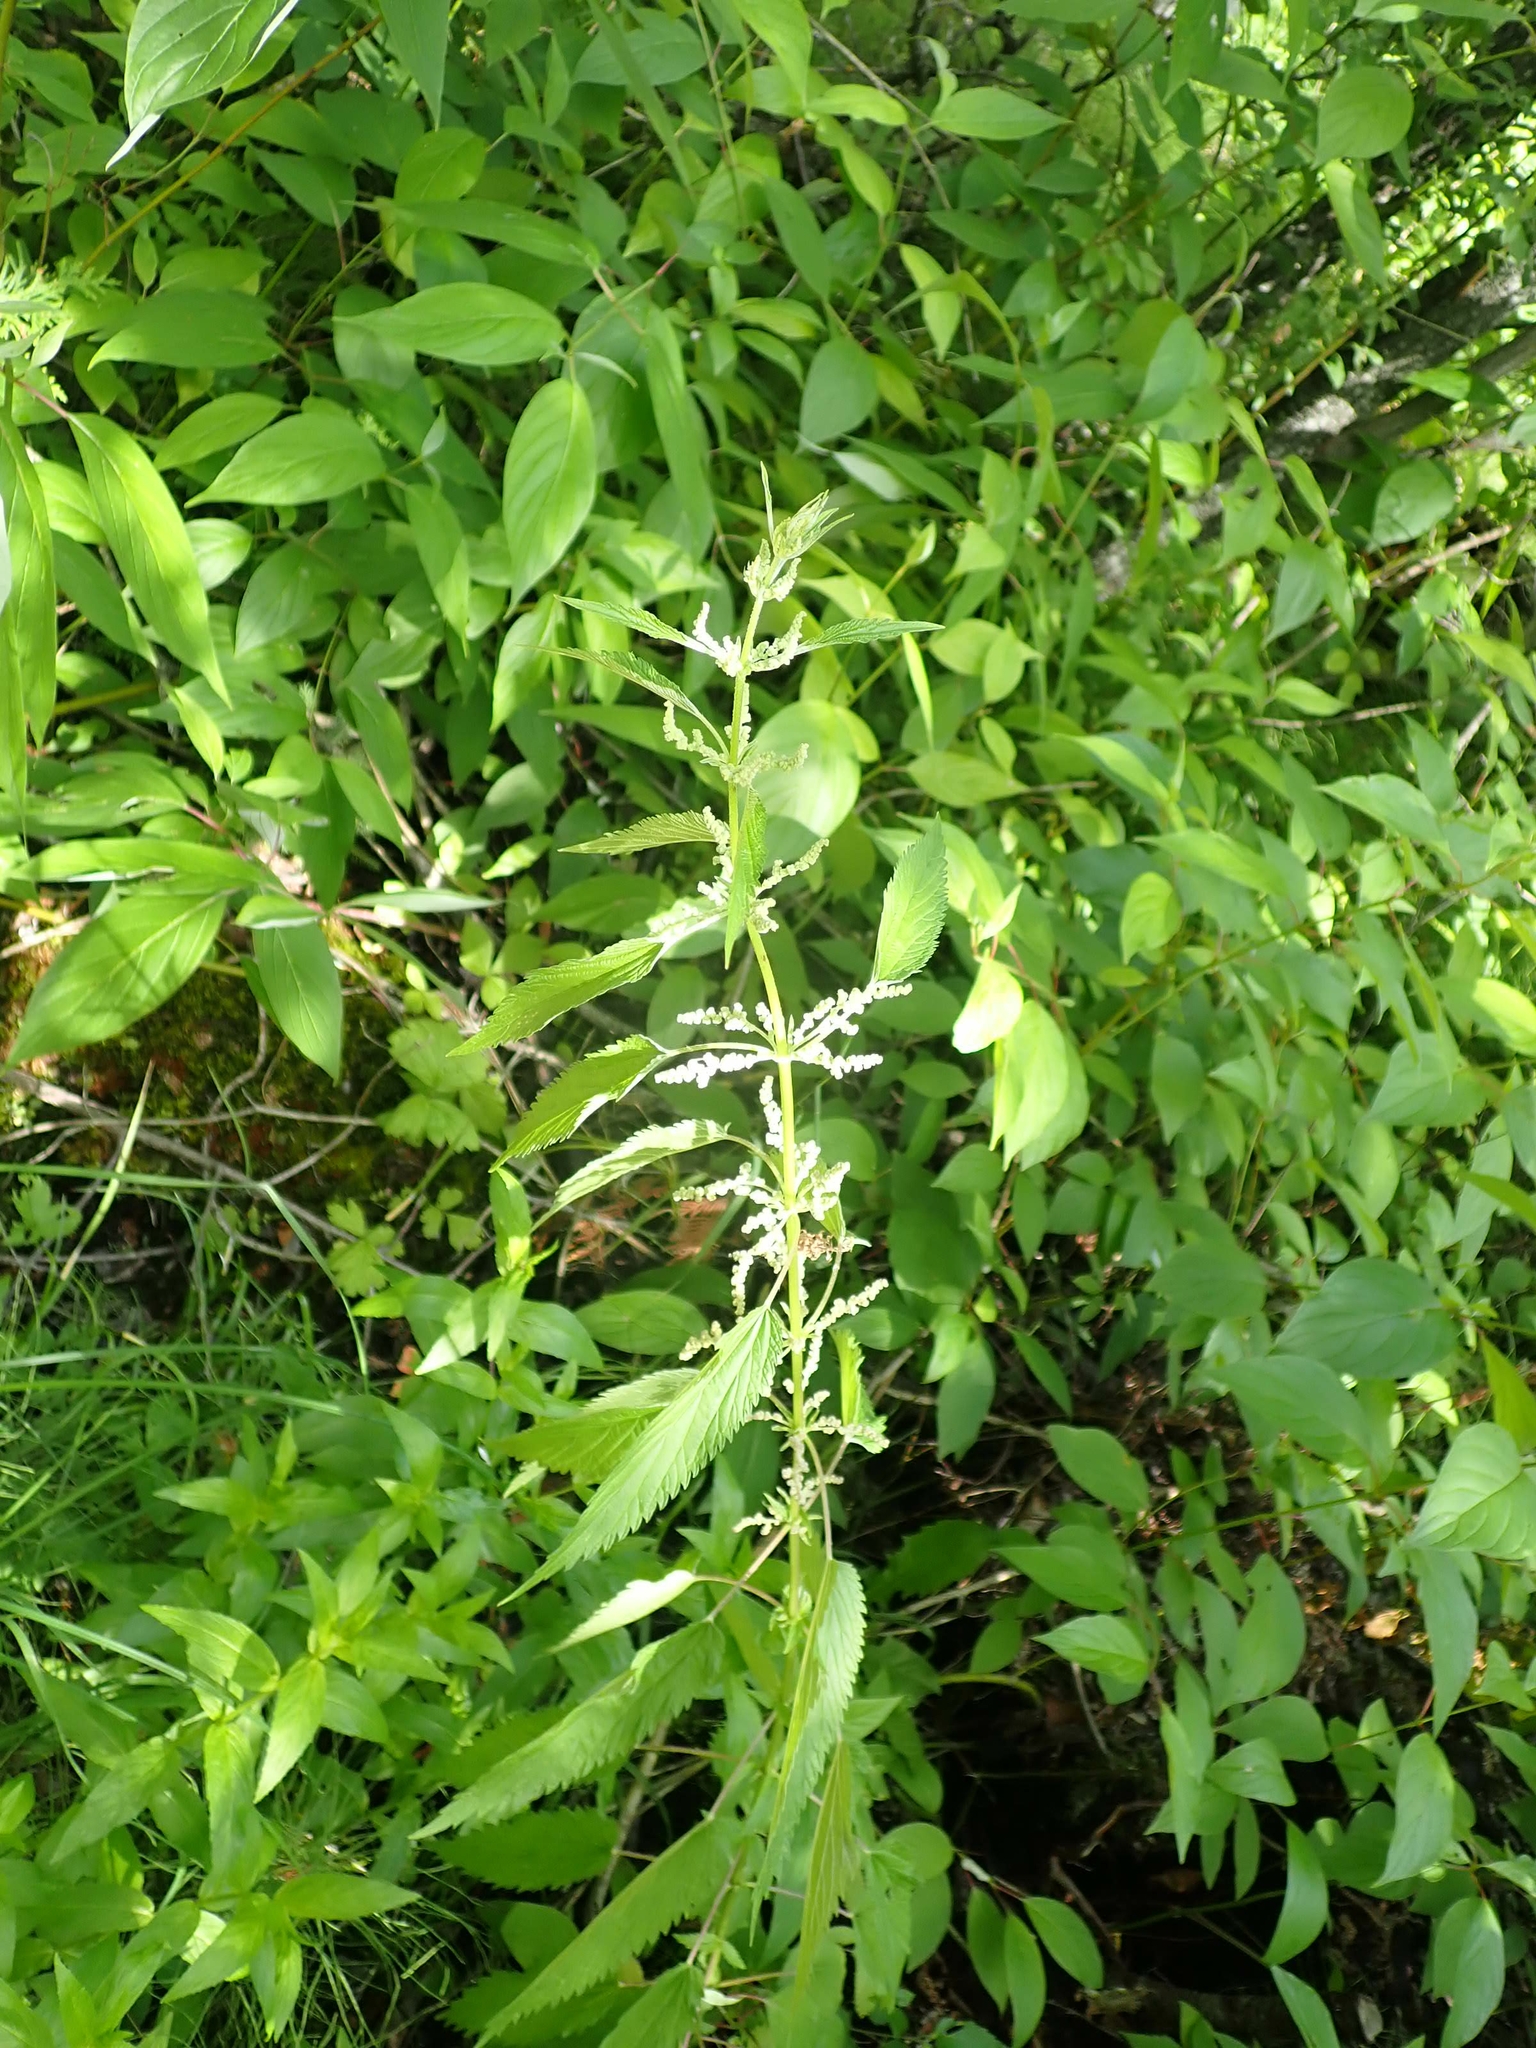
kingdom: Plantae
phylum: Tracheophyta
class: Magnoliopsida
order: Rosales
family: Urticaceae
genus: Urtica
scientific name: Urtica gracilis
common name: Slender stinging nettle
